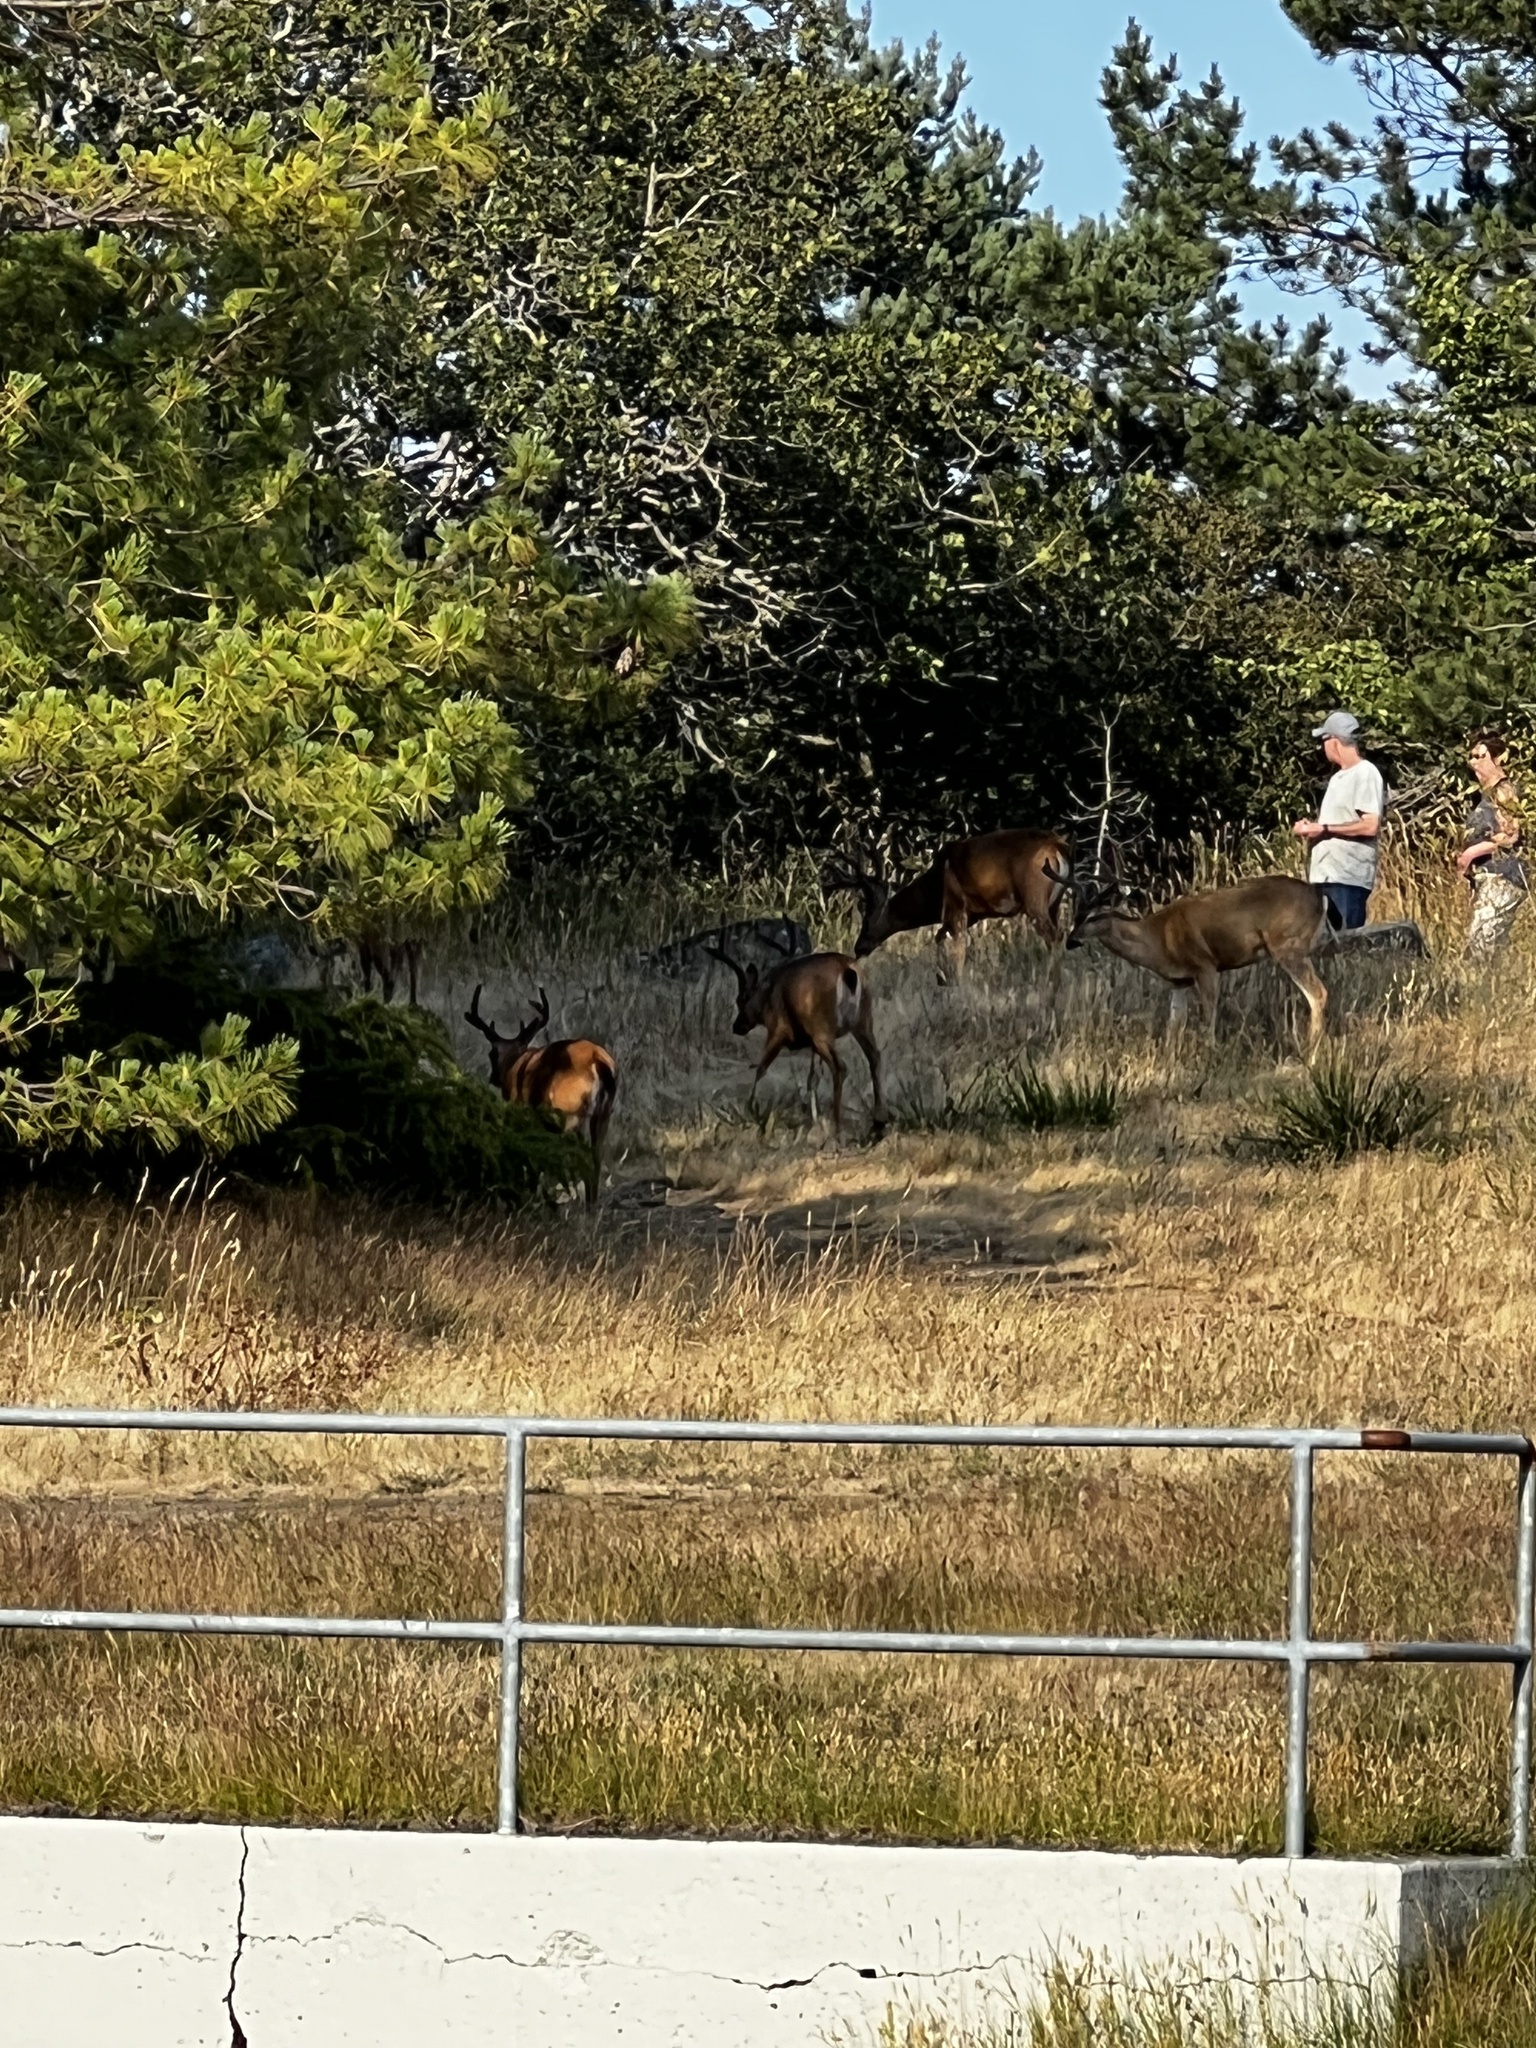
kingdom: Animalia
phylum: Chordata
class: Mammalia
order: Artiodactyla
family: Cervidae
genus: Odocoileus
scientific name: Odocoileus hemionus
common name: Mule deer
